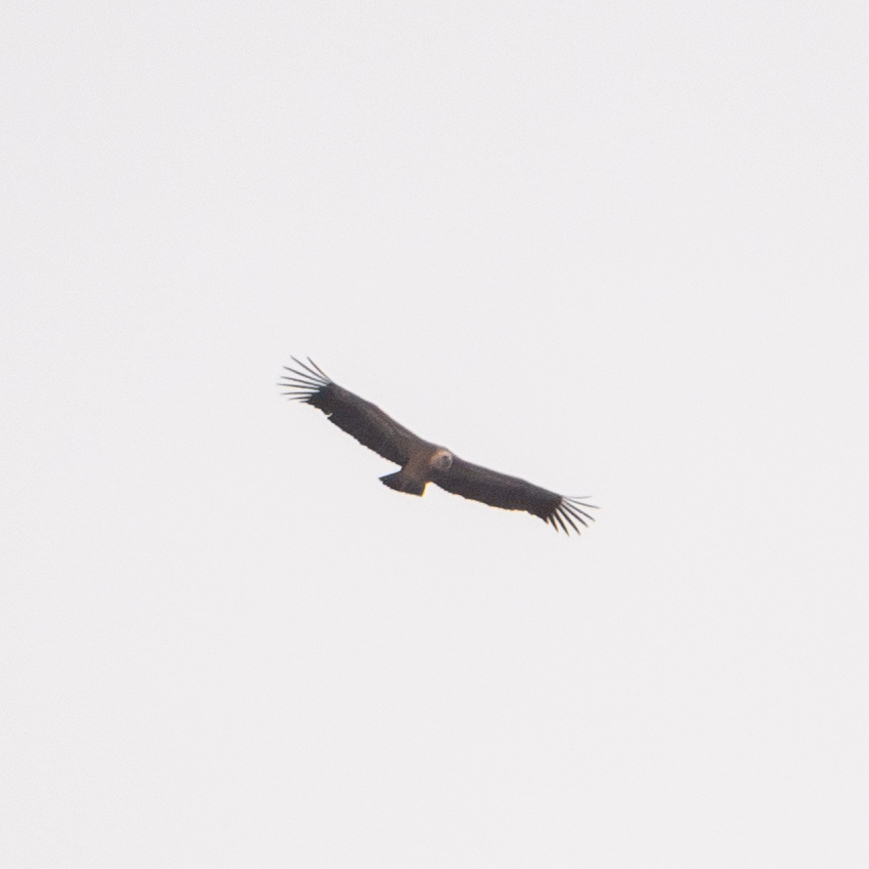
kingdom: Animalia
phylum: Chordata
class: Aves
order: Accipitriformes
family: Accipitridae
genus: Gyps
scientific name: Gyps fulvus
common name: Griffon vulture
